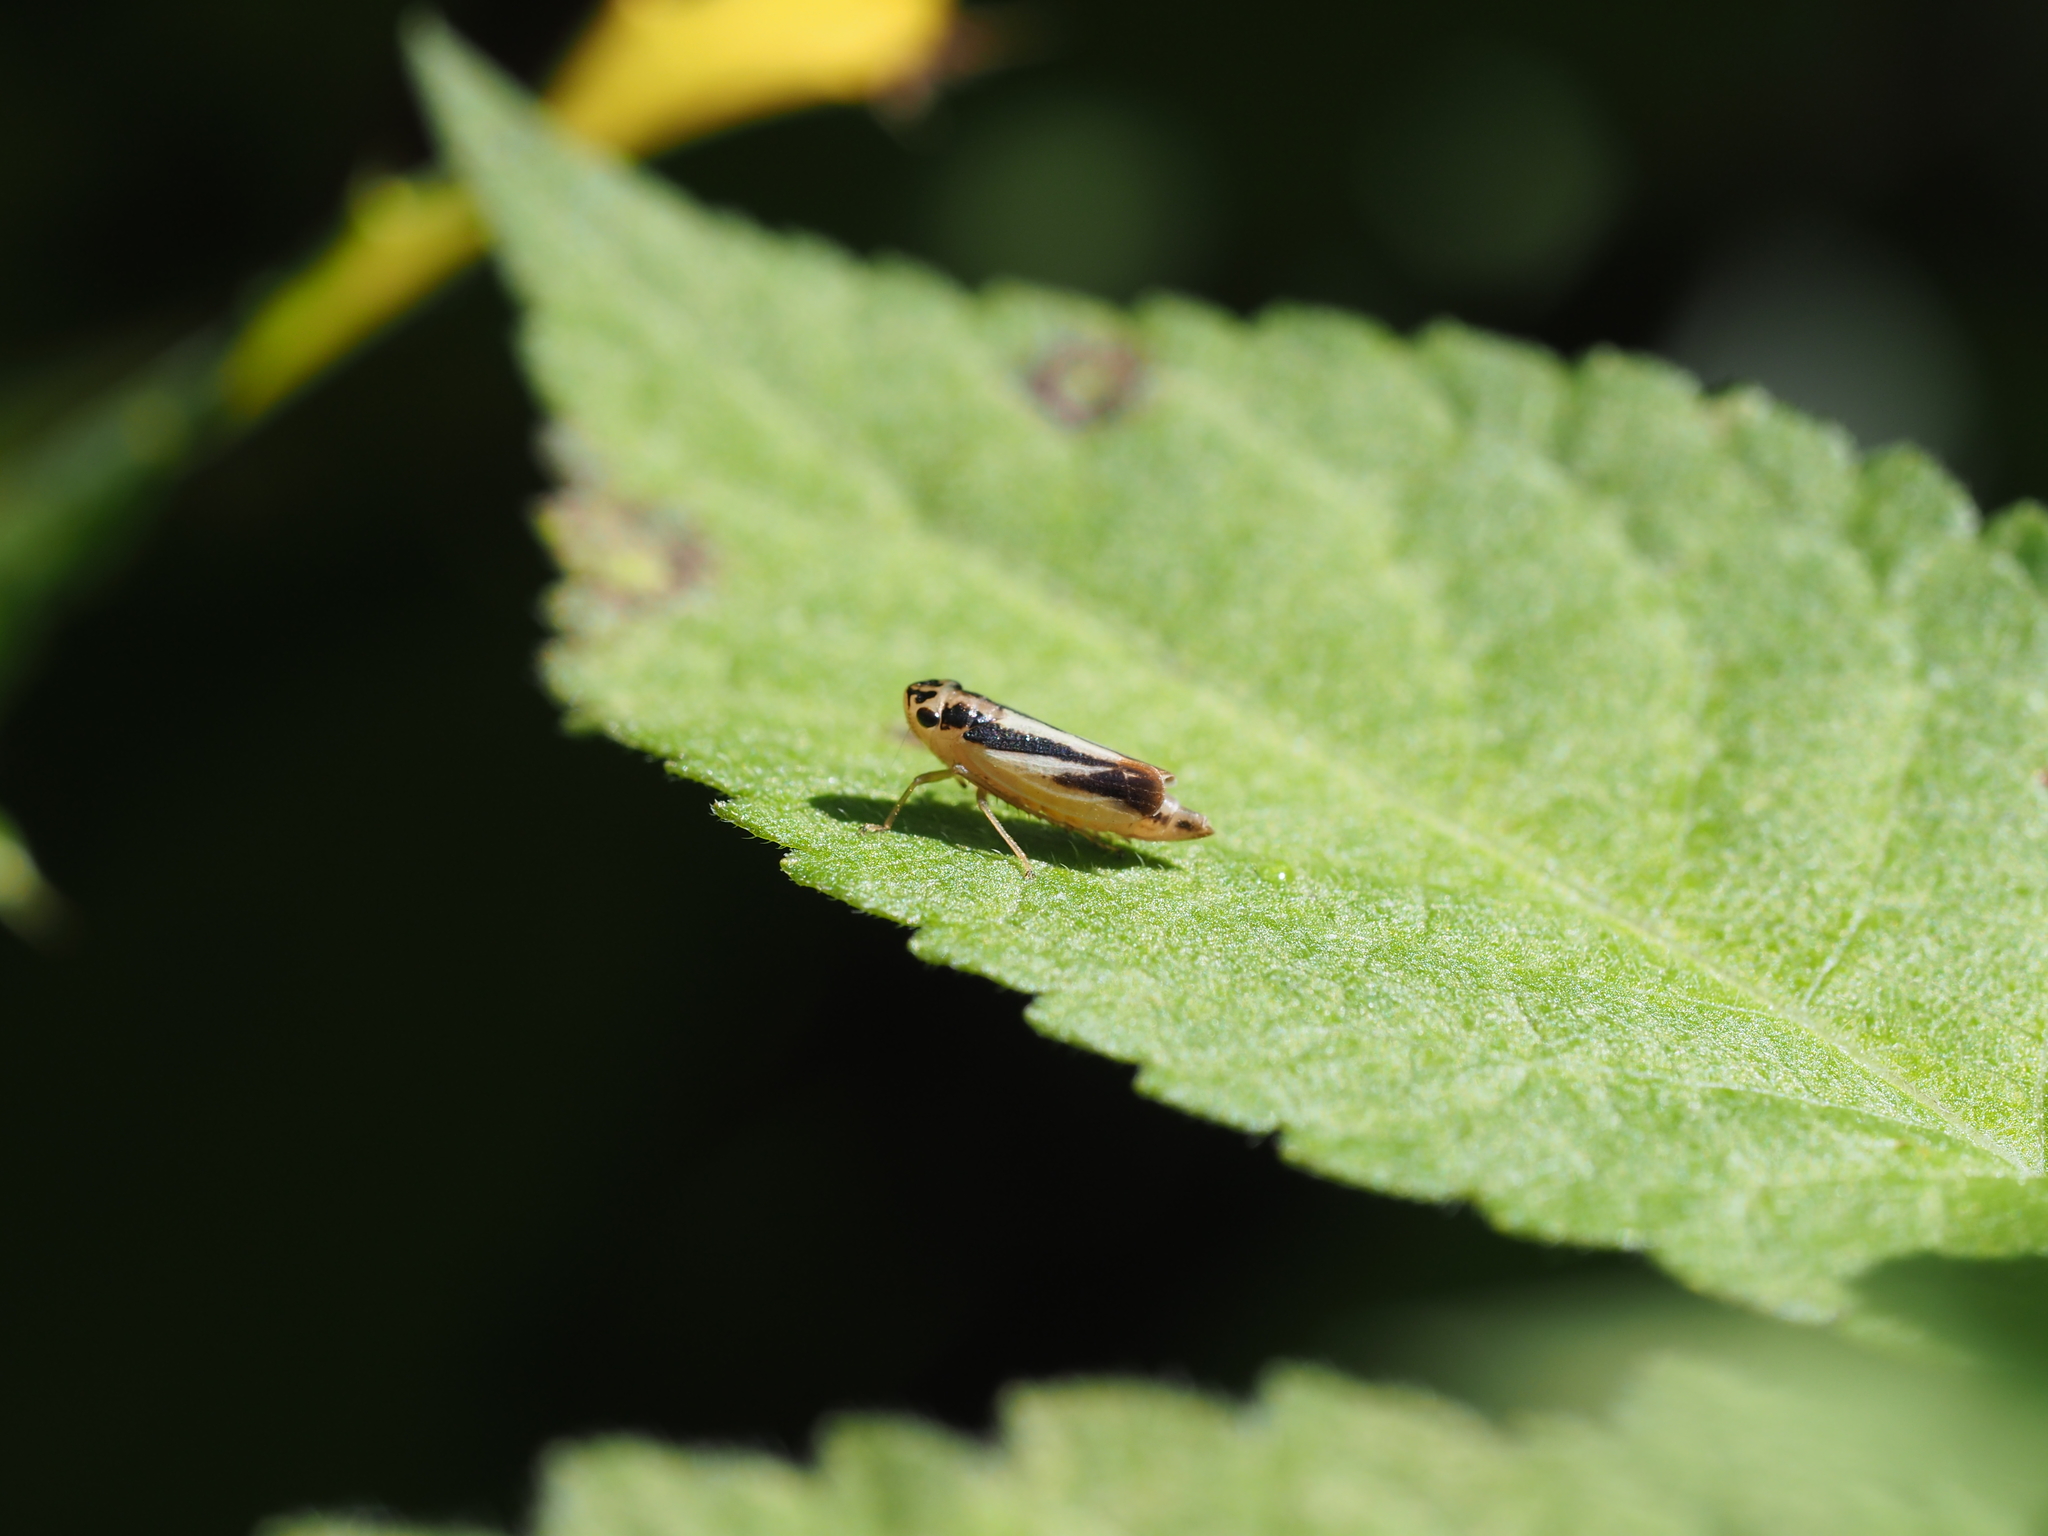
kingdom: Animalia
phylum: Arthropoda
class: Insecta
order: Hemiptera
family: Cicadellidae
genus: Evacanthus
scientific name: Evacanthus interruptus
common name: Leafhopper
